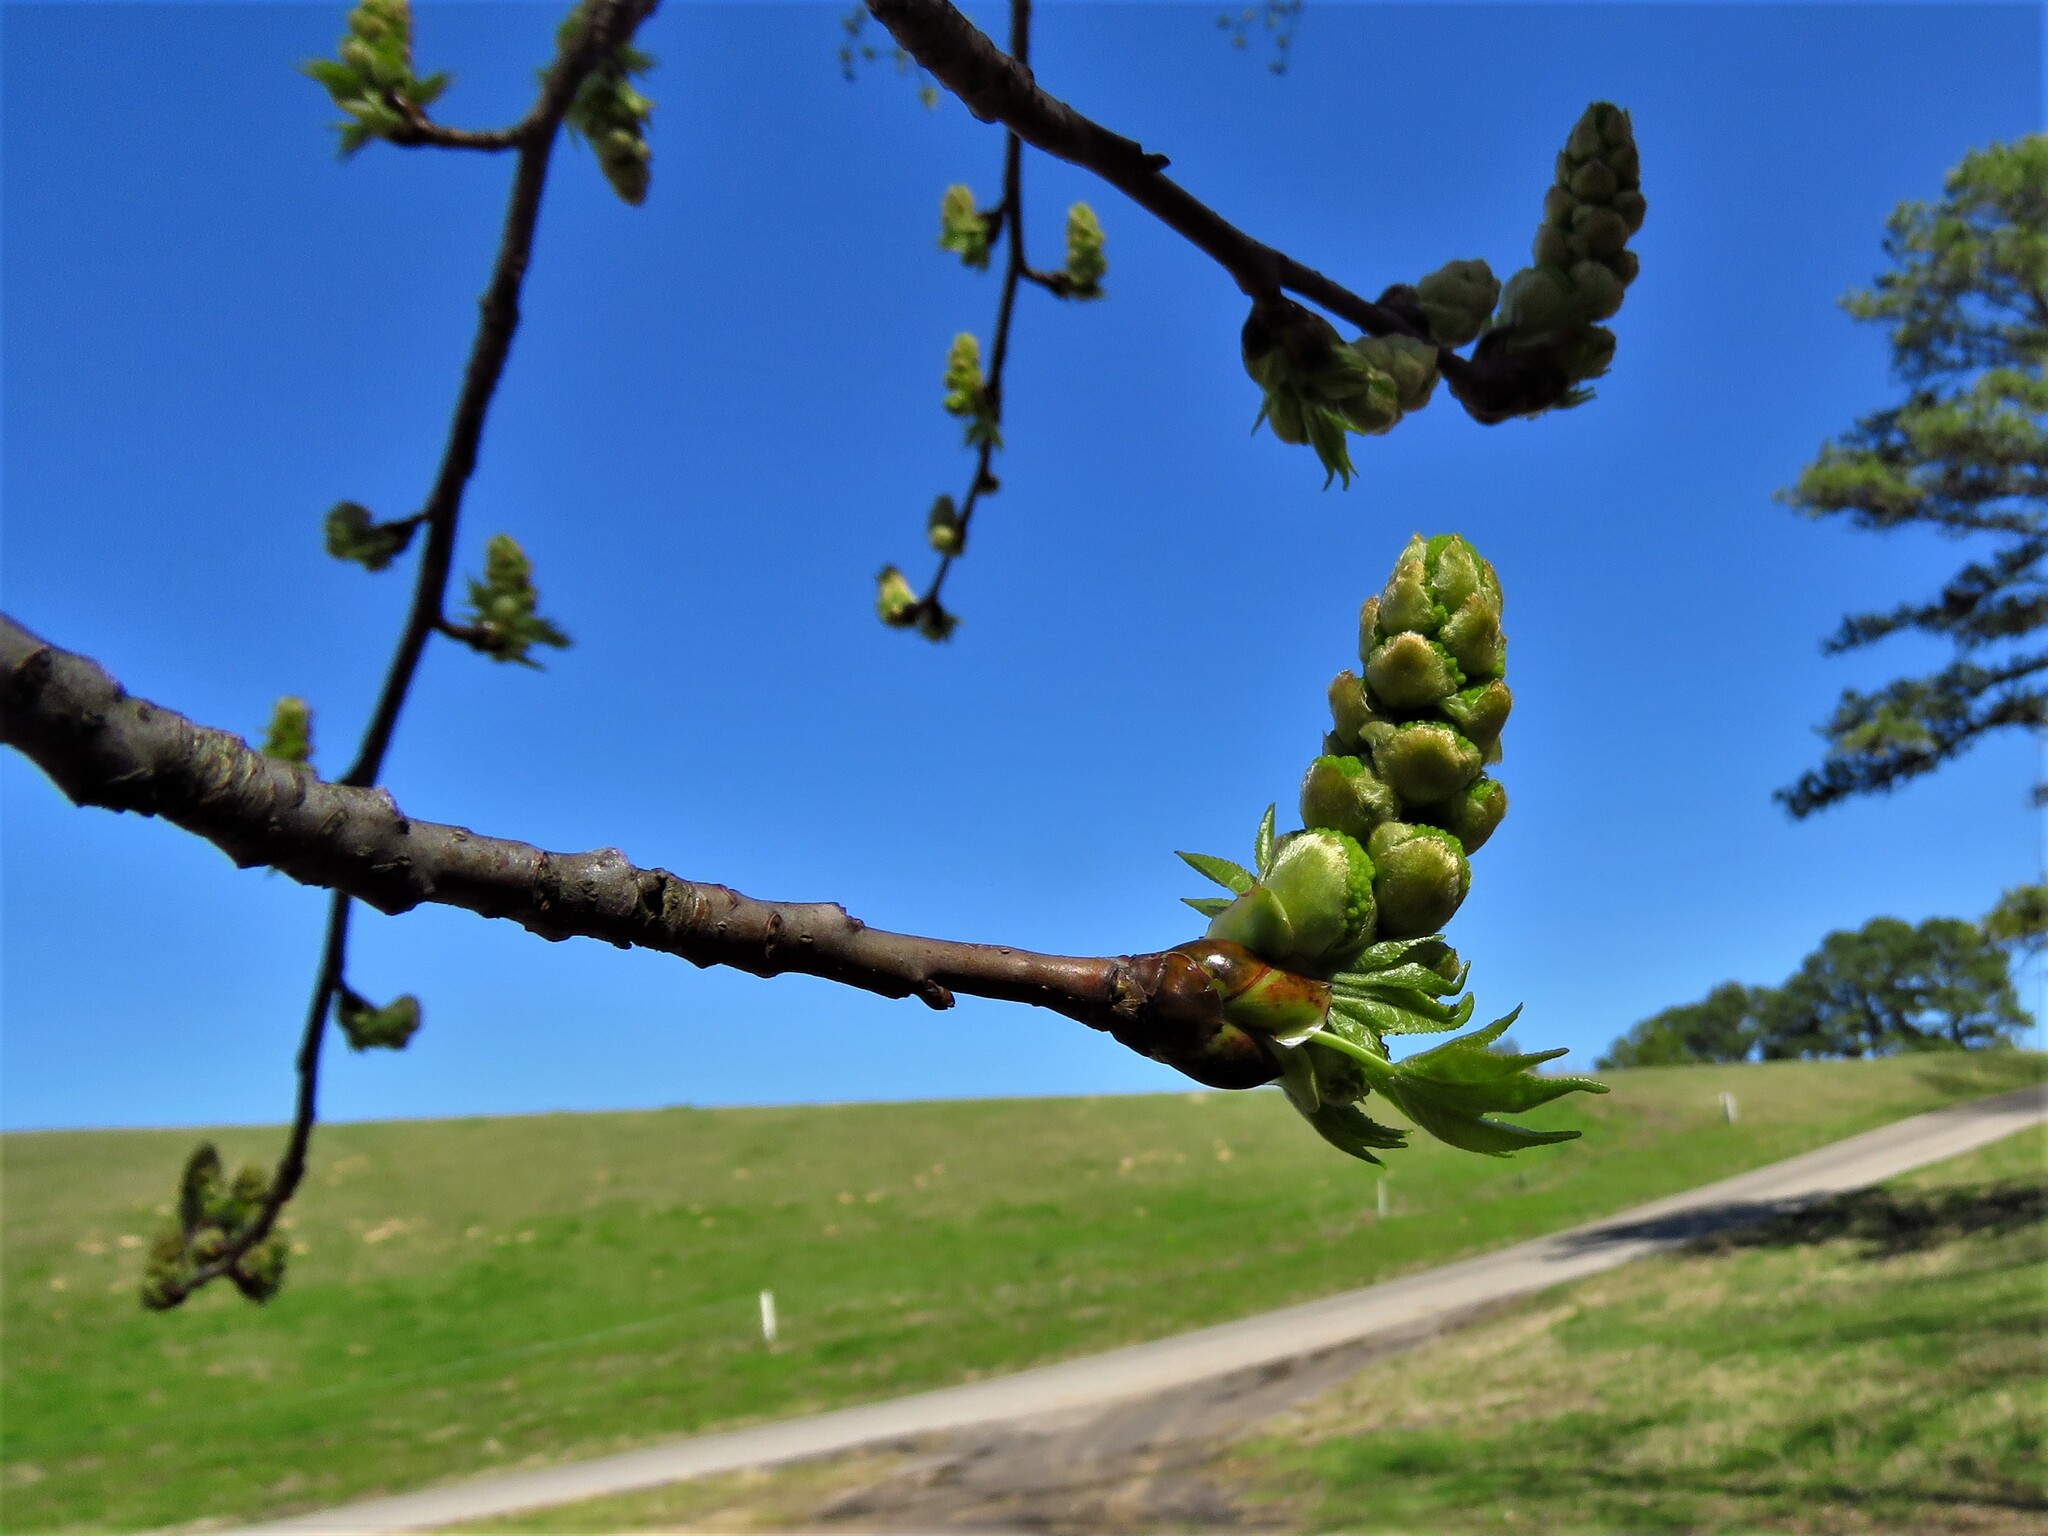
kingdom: Plantae
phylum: Tracheophyta
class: Magnoliopsida
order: Saxifragales
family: Altingiaceae
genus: Liquidambar
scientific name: Liquidambar styraciflua
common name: Sweet gum
